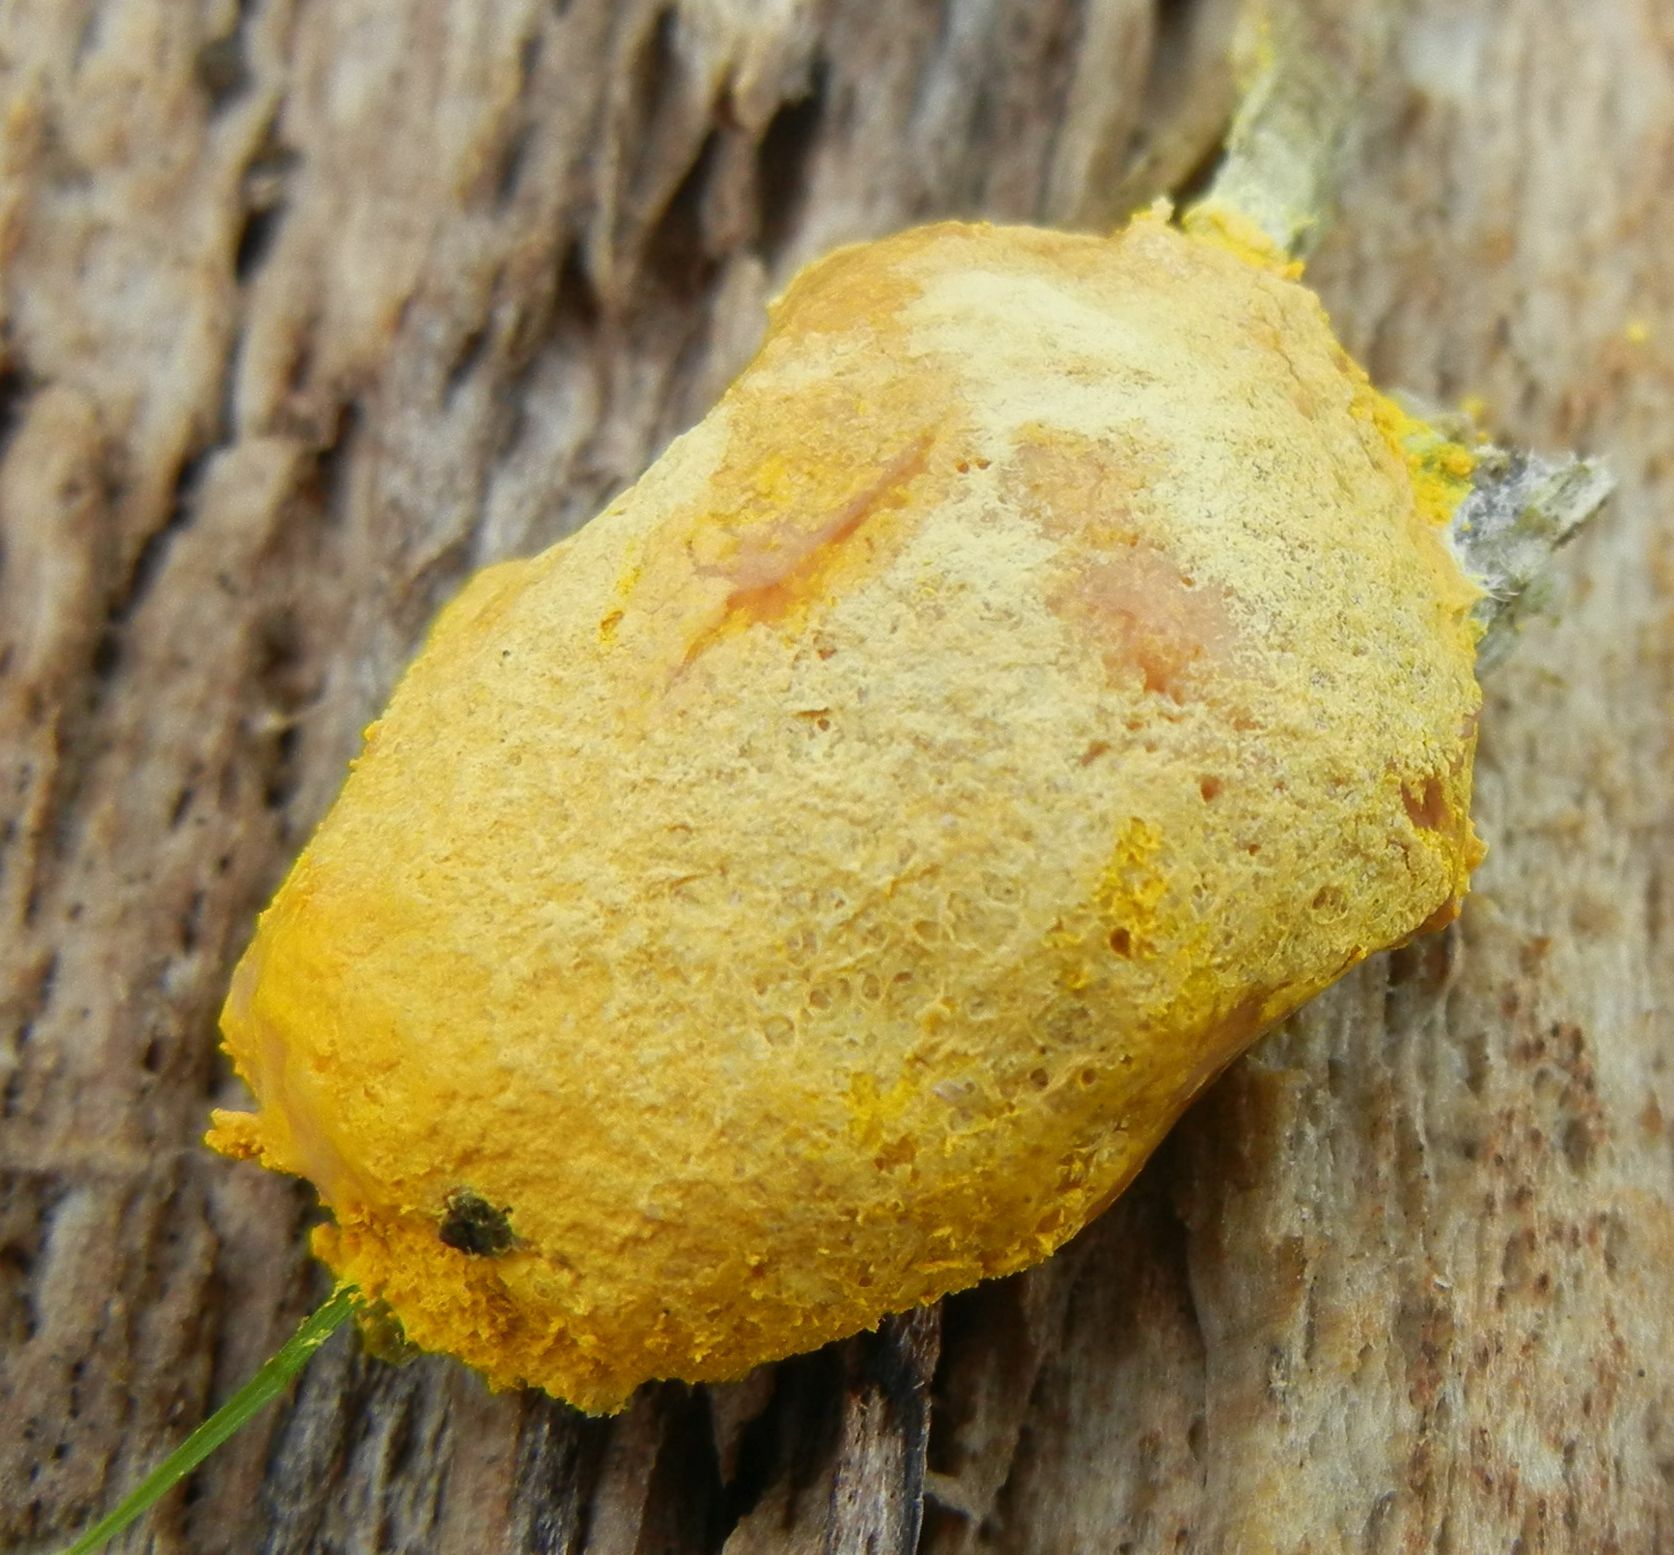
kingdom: Protozoa
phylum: Mycetozoa
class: Myxomycetes
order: Physarales
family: Physaraceae
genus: Fuligo
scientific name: Fuligo septica
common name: Dog vomit slime mold
